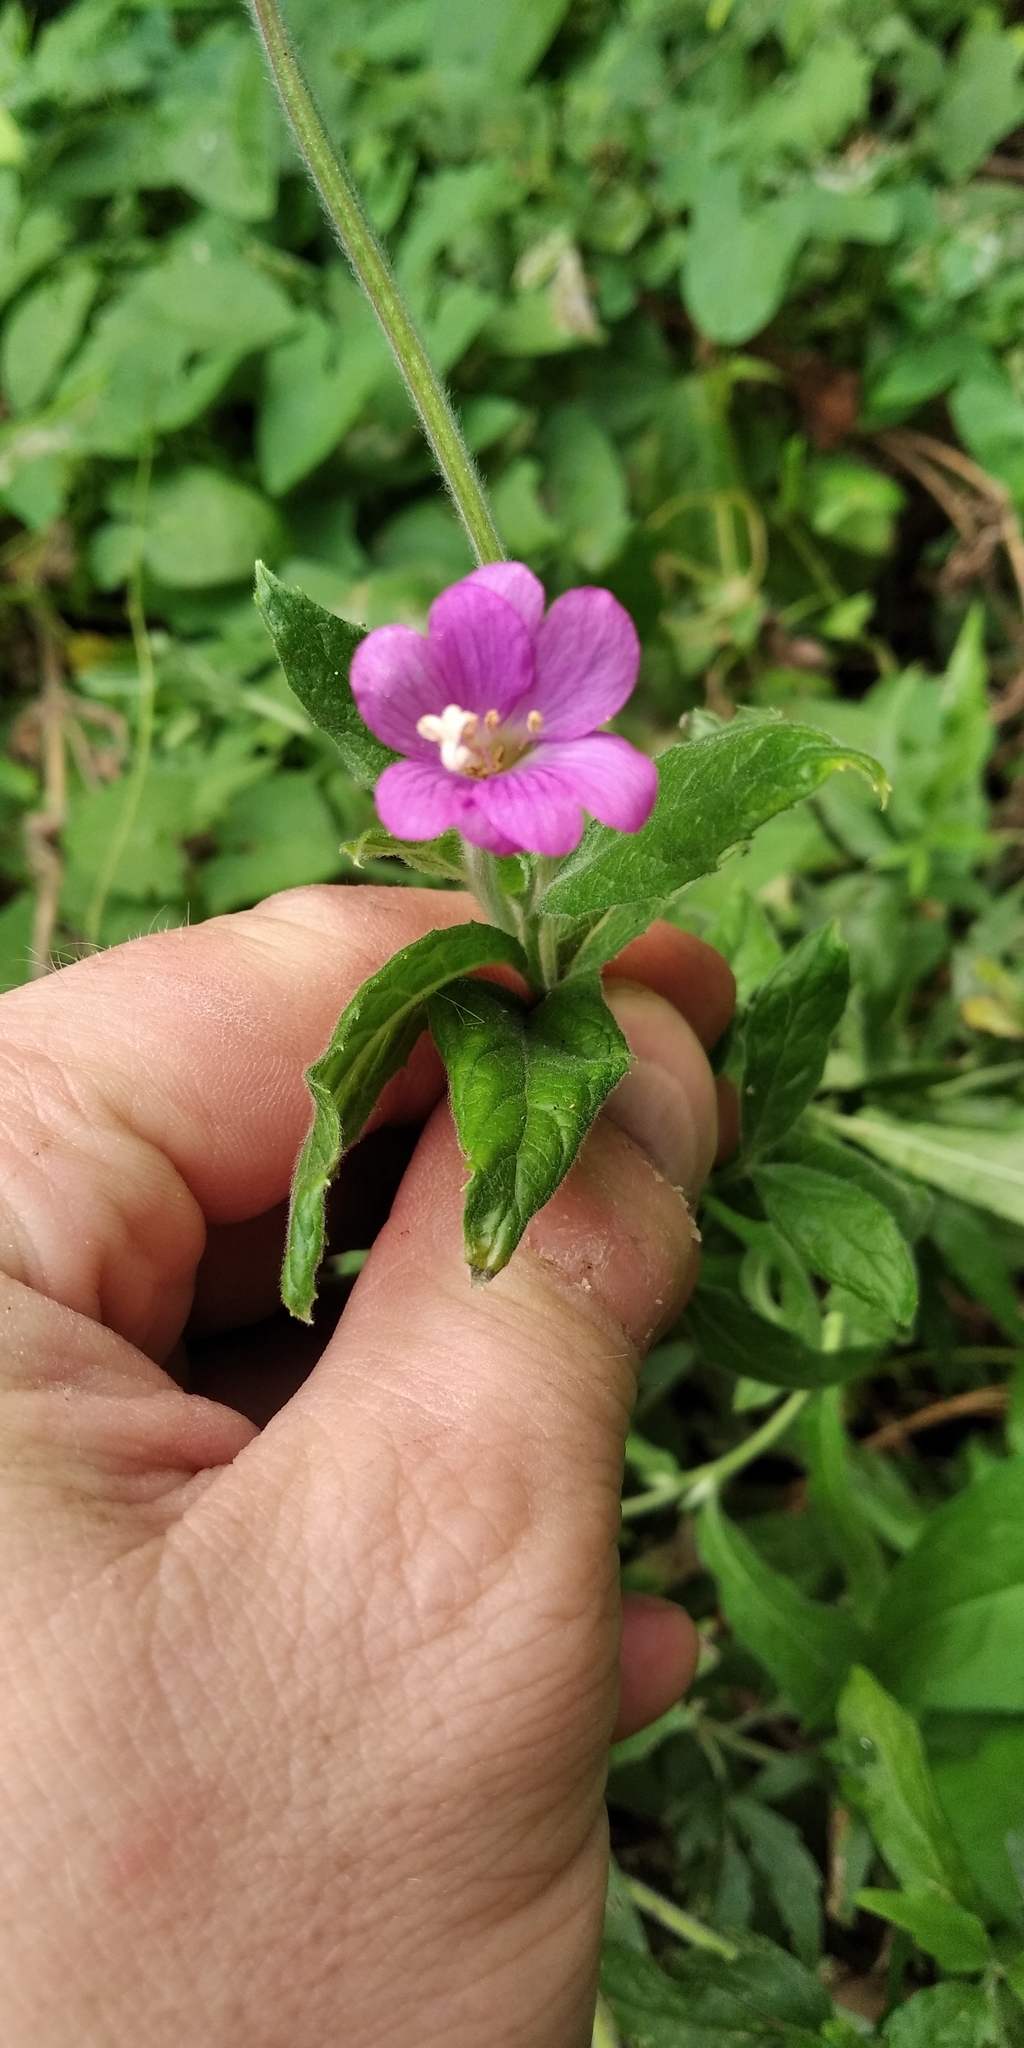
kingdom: Plantae
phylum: Tracheophyta
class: Magnoliopsida
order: Myrtales
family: Onagraceae
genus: Epilobium
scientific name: Epilobium hirsutum
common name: Great willowherb
